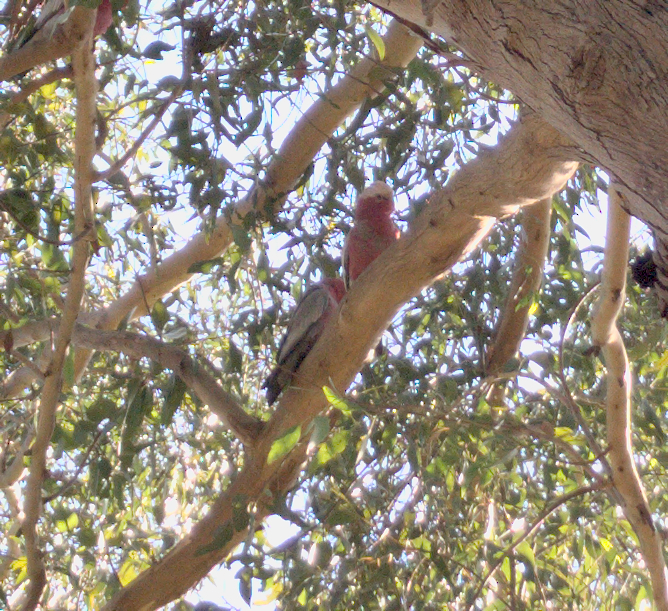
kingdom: Animalia
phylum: Chordata
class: Aves
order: Psittaciformes
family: Psittacidae
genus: Eolophus
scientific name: Eolophus roseicapilla
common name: Galah
